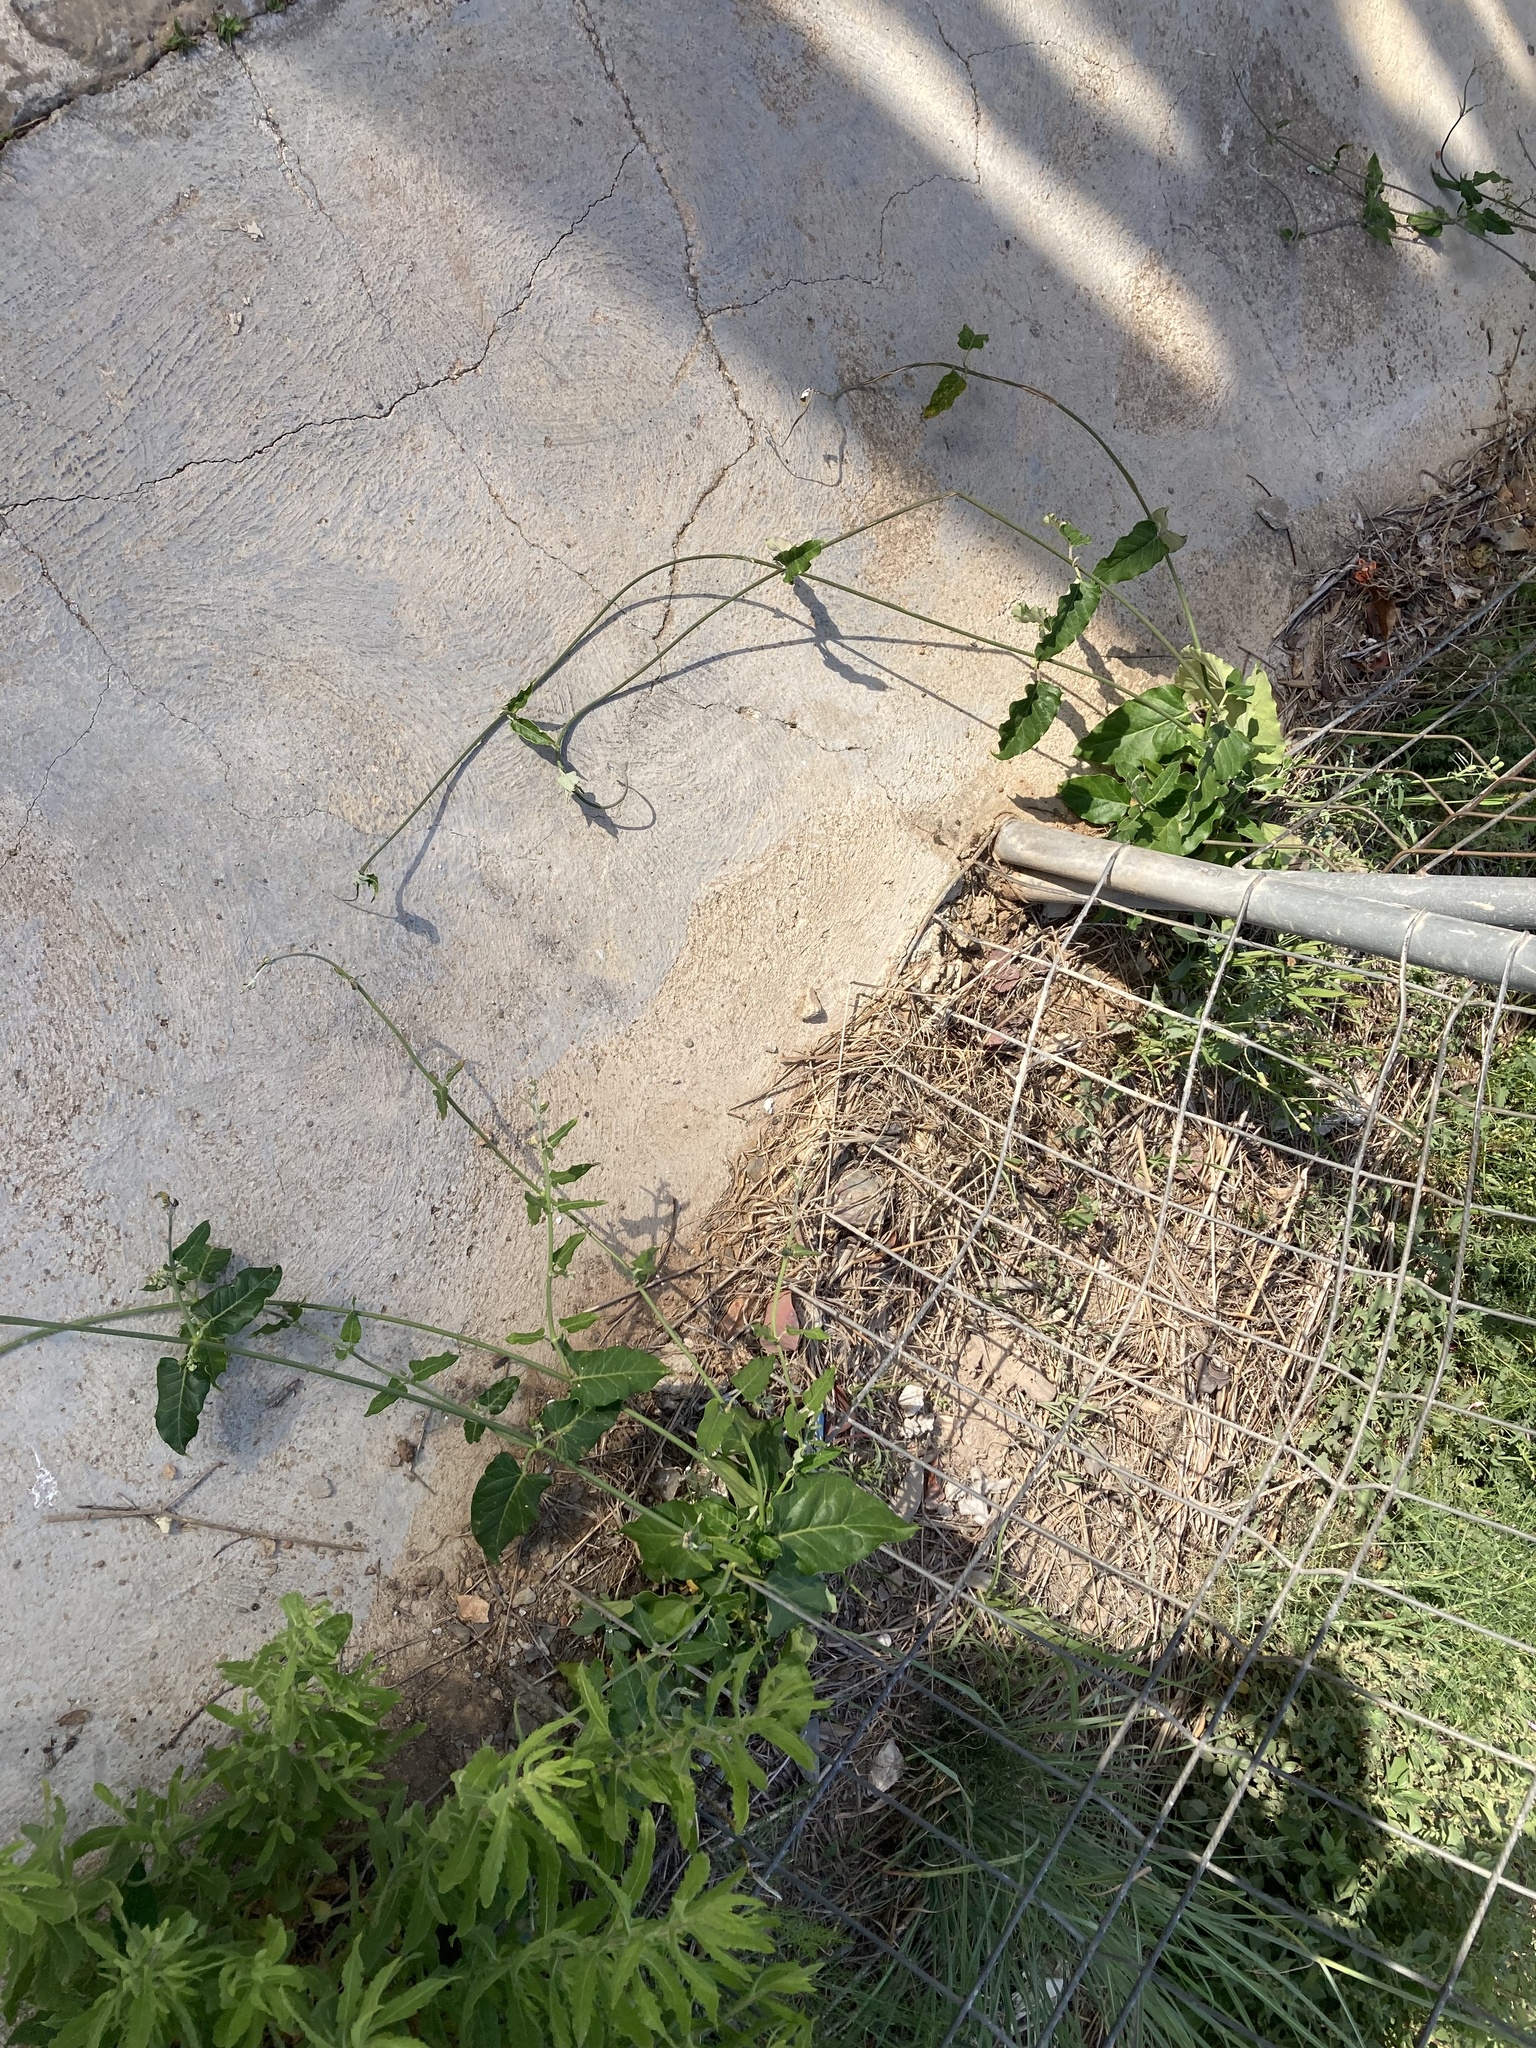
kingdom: Plantae
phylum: Tracheophyta
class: Magnoliopsida
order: Gentianales
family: Apocynaceae
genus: Araujia
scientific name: Araujia sericifera
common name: White bladderflower
